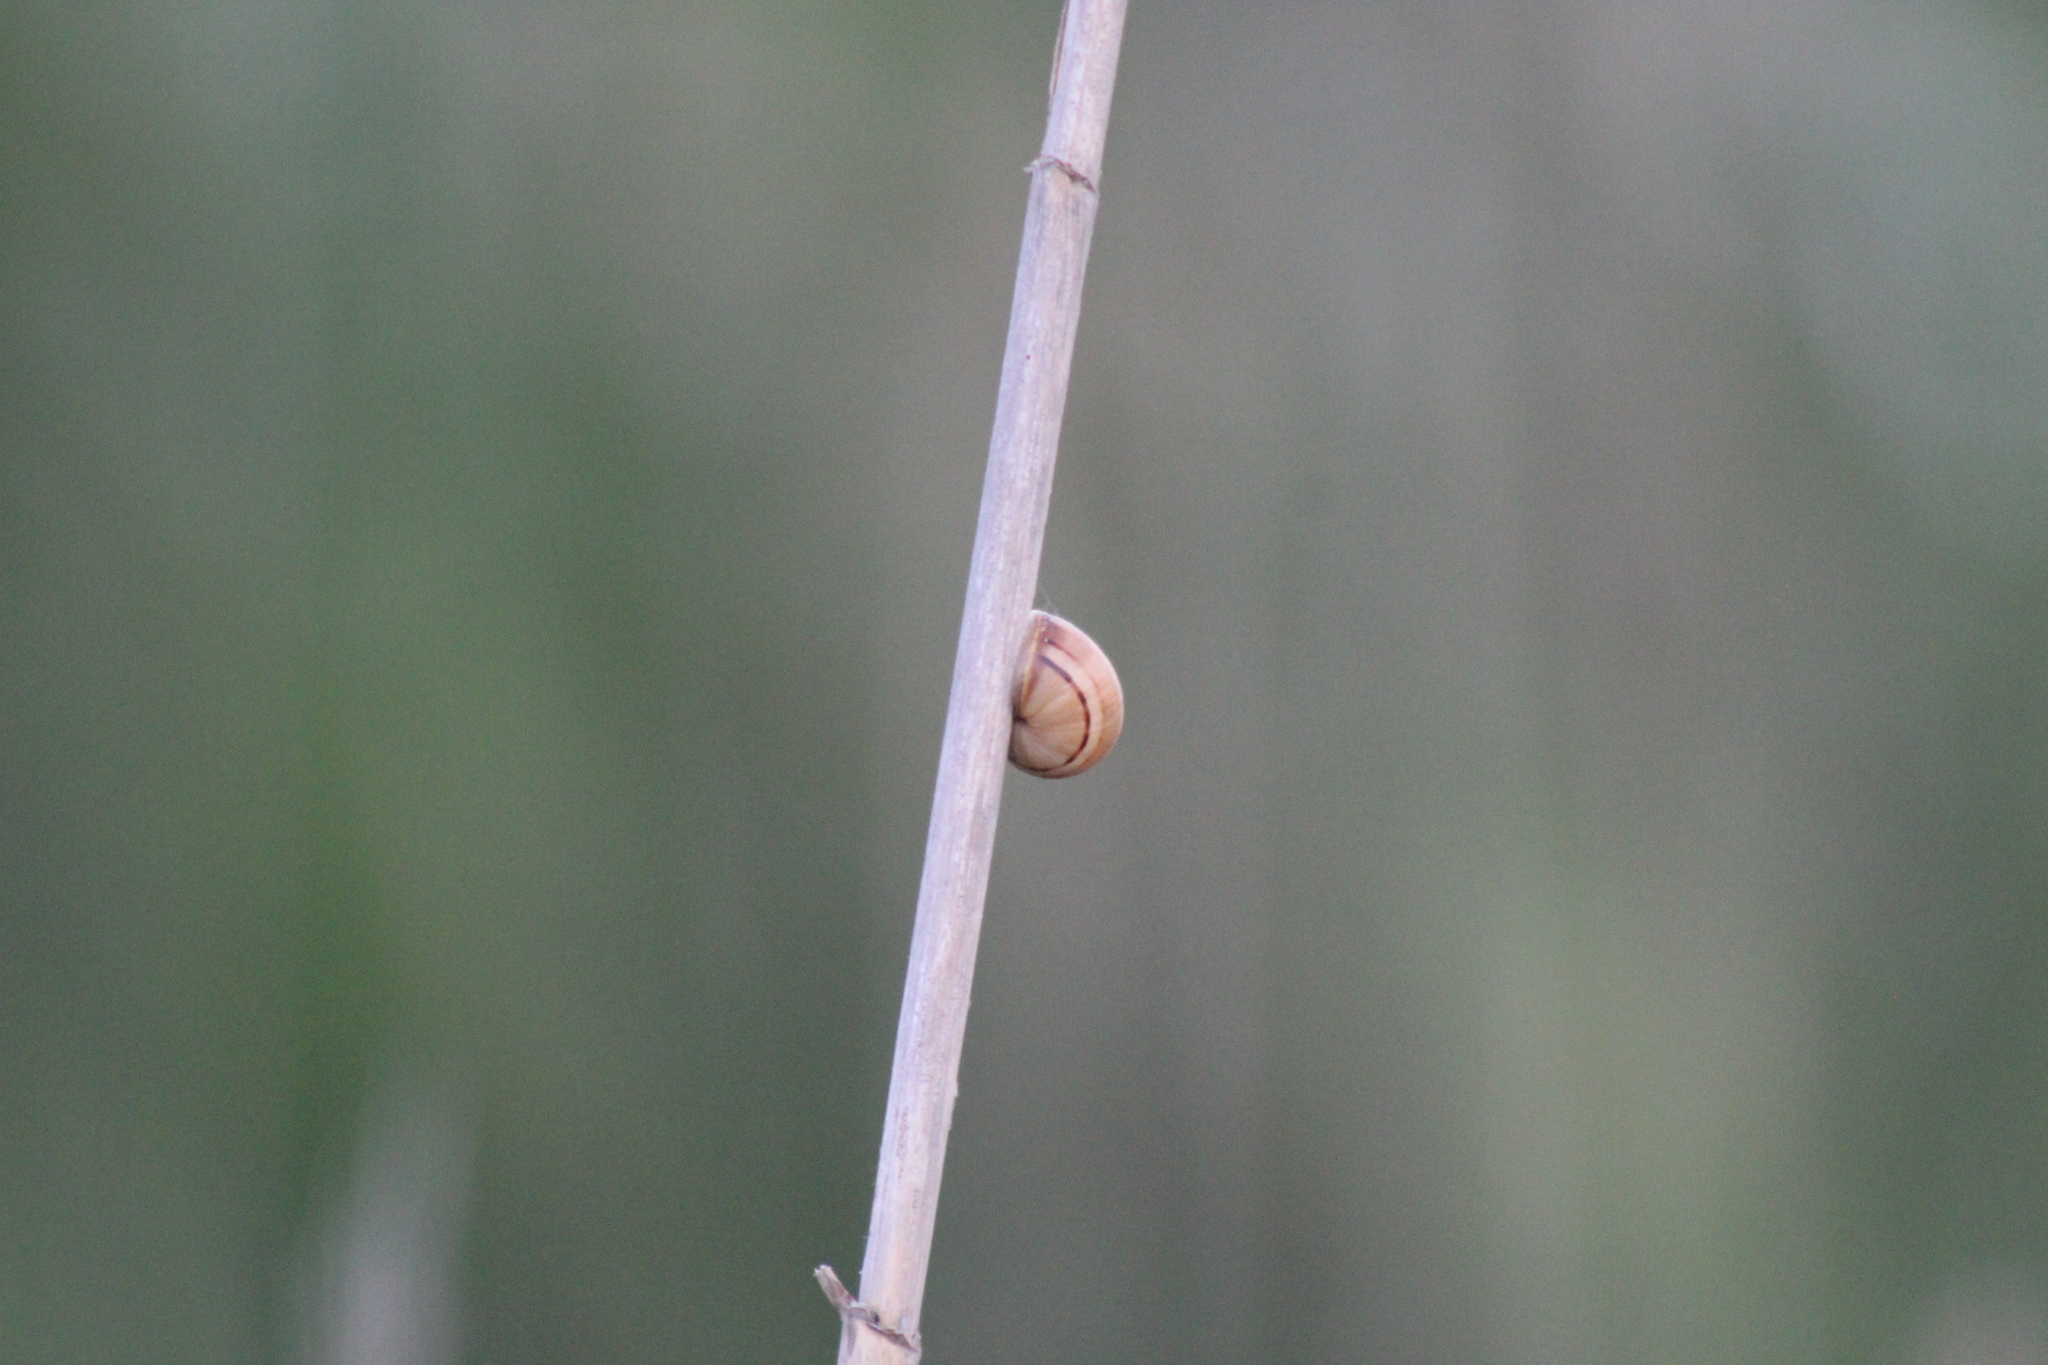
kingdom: Animalia
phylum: Mollusca
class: Gastropoda
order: Stylommatophora
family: Helicidae
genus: Theba
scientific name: Theba pisana
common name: White snail
